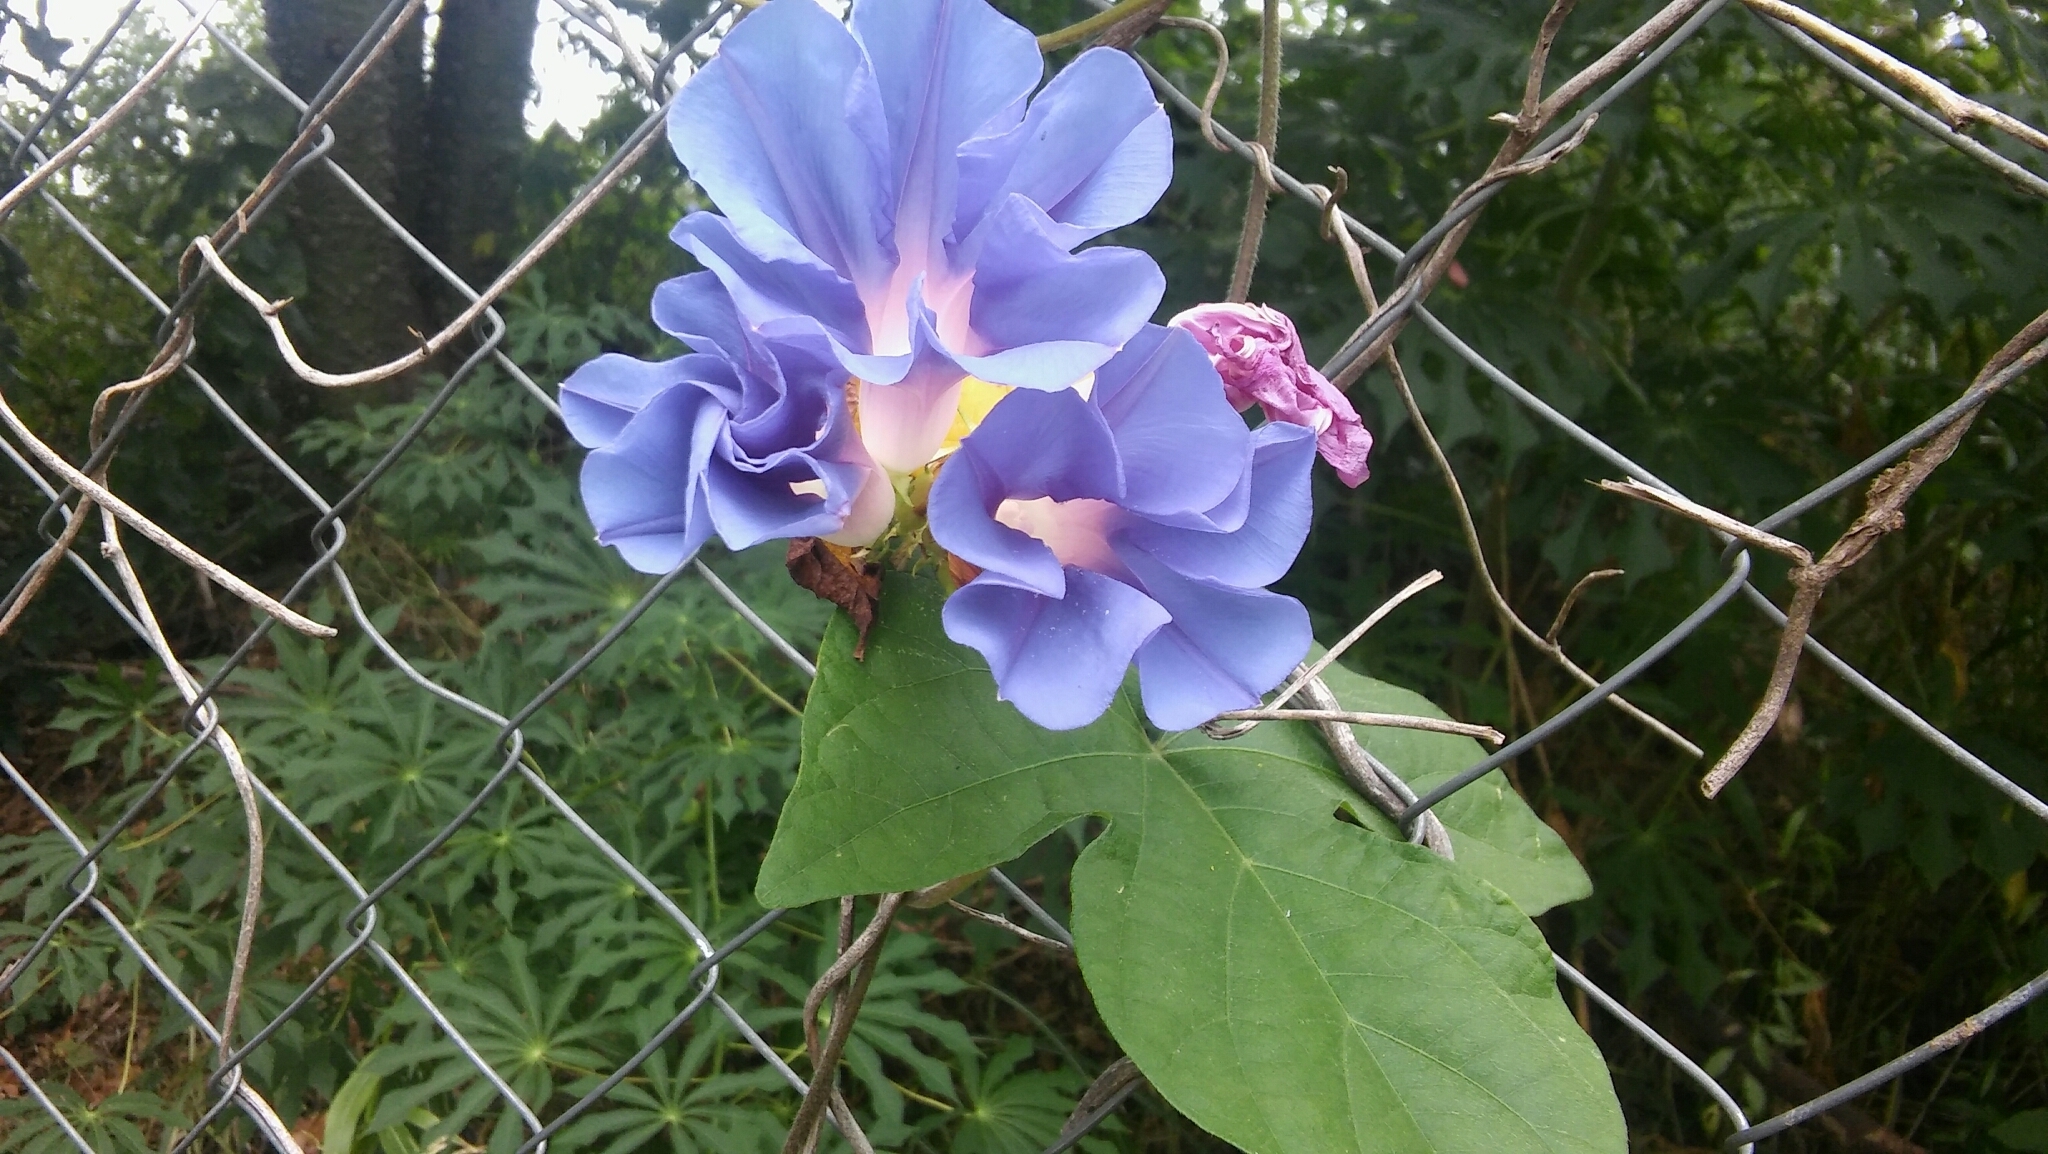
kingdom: Plantae
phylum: Tracheophyta
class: Magnoliopsida
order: Solanales
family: Convolvulaceae
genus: Ipomoea
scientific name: Ipomoea purpurea
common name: Common morning-glory
